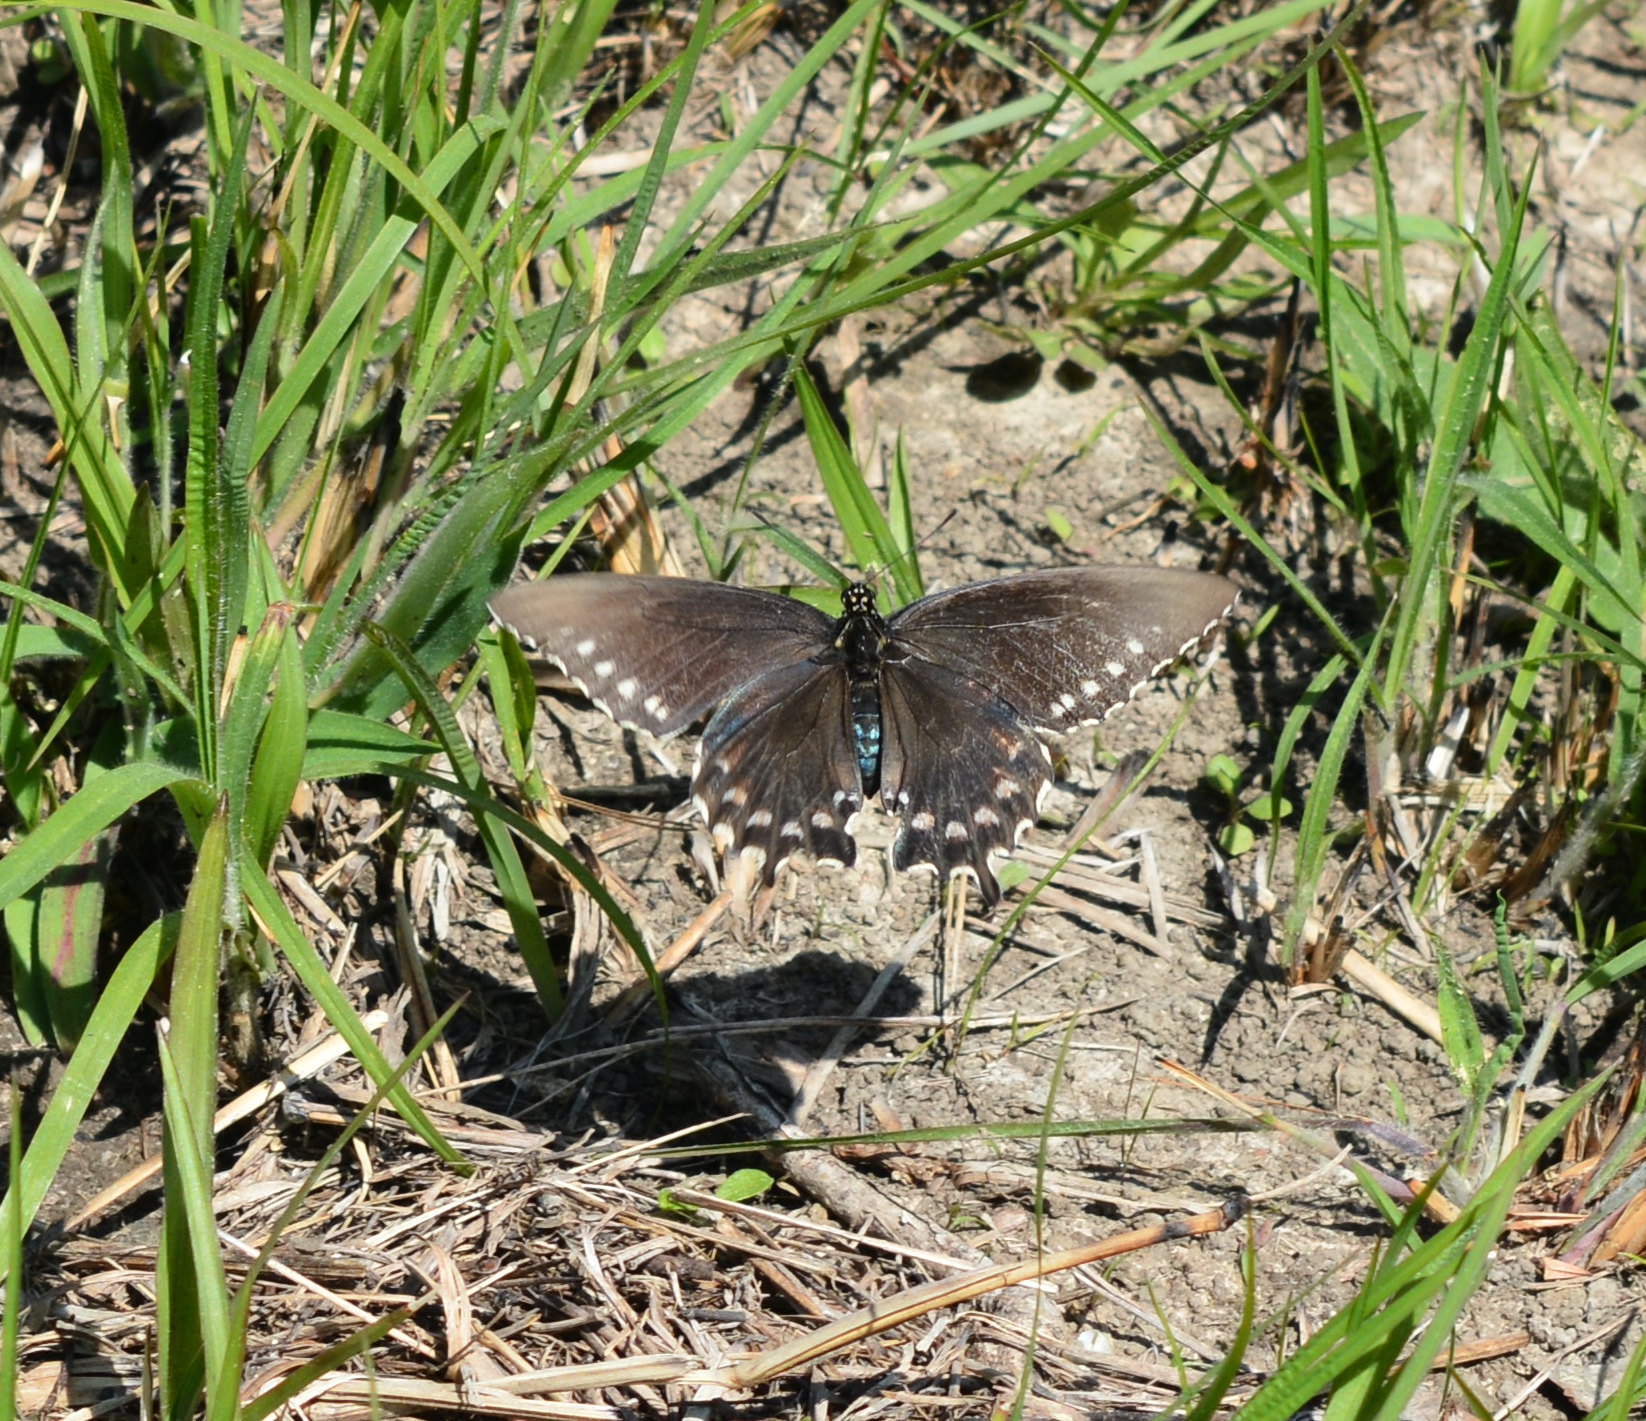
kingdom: Animalia
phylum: Arthropoda
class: Insecta
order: Lepidoptera
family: Papilionidae
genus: Battus
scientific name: Battus philenor
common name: Pipevine swallowtail
